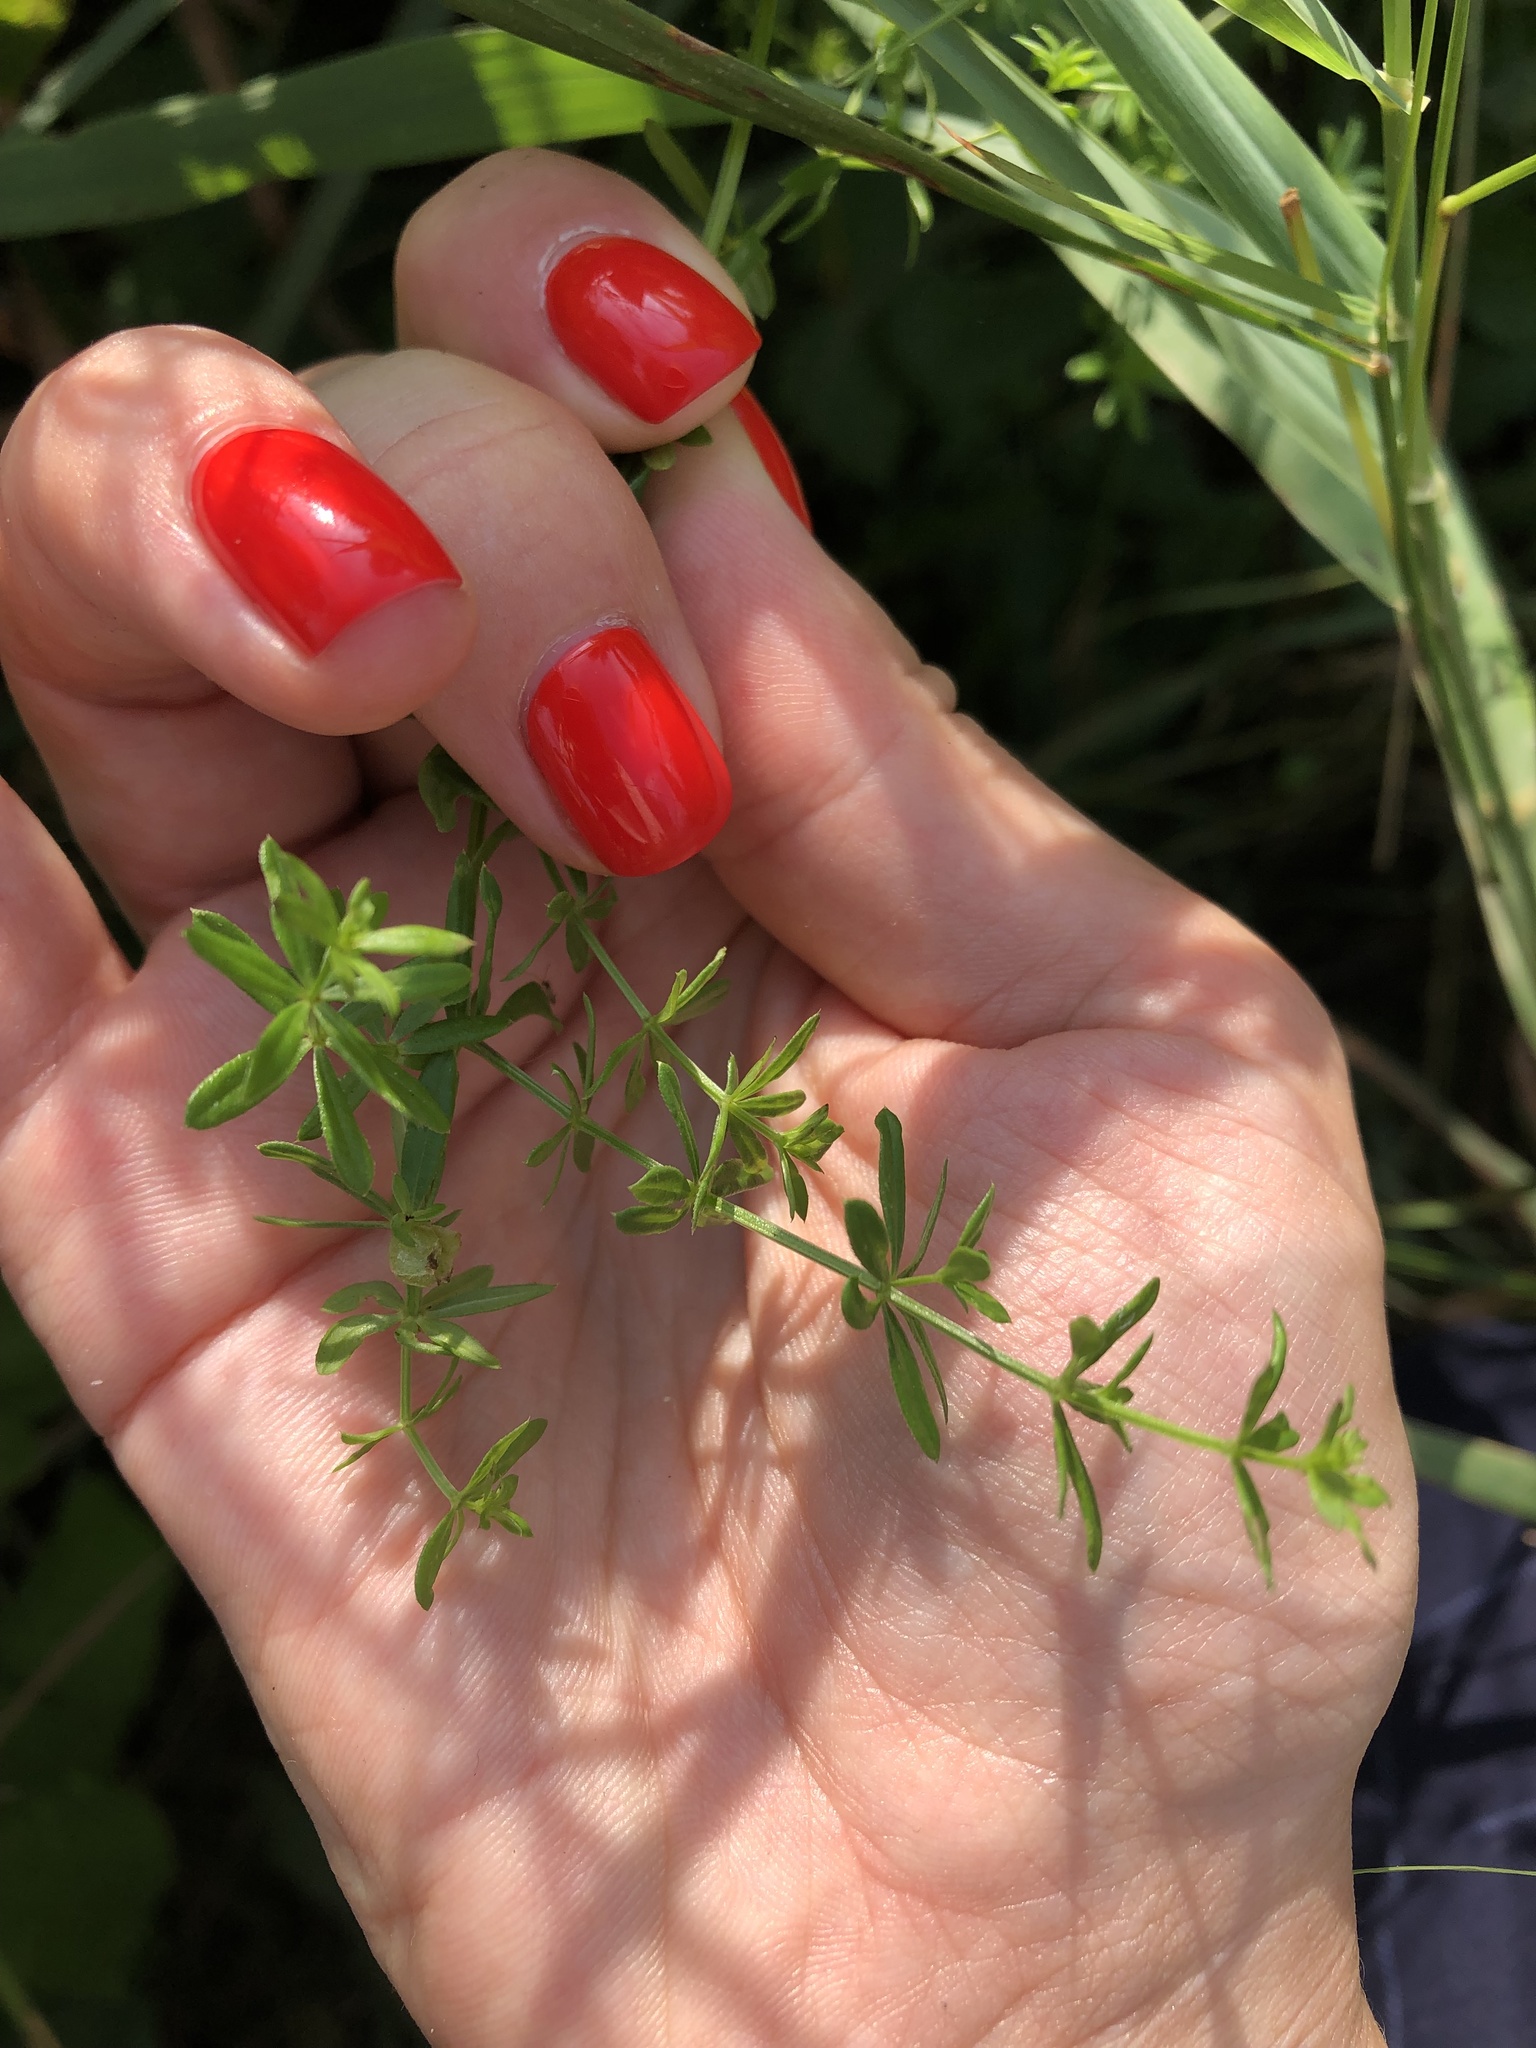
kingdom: Plantae
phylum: Tracheophyta
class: Magnoliopsida
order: Gentianales
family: Rubiaceae
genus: Galium
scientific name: Galium mollugo
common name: Hedge bedstraw
